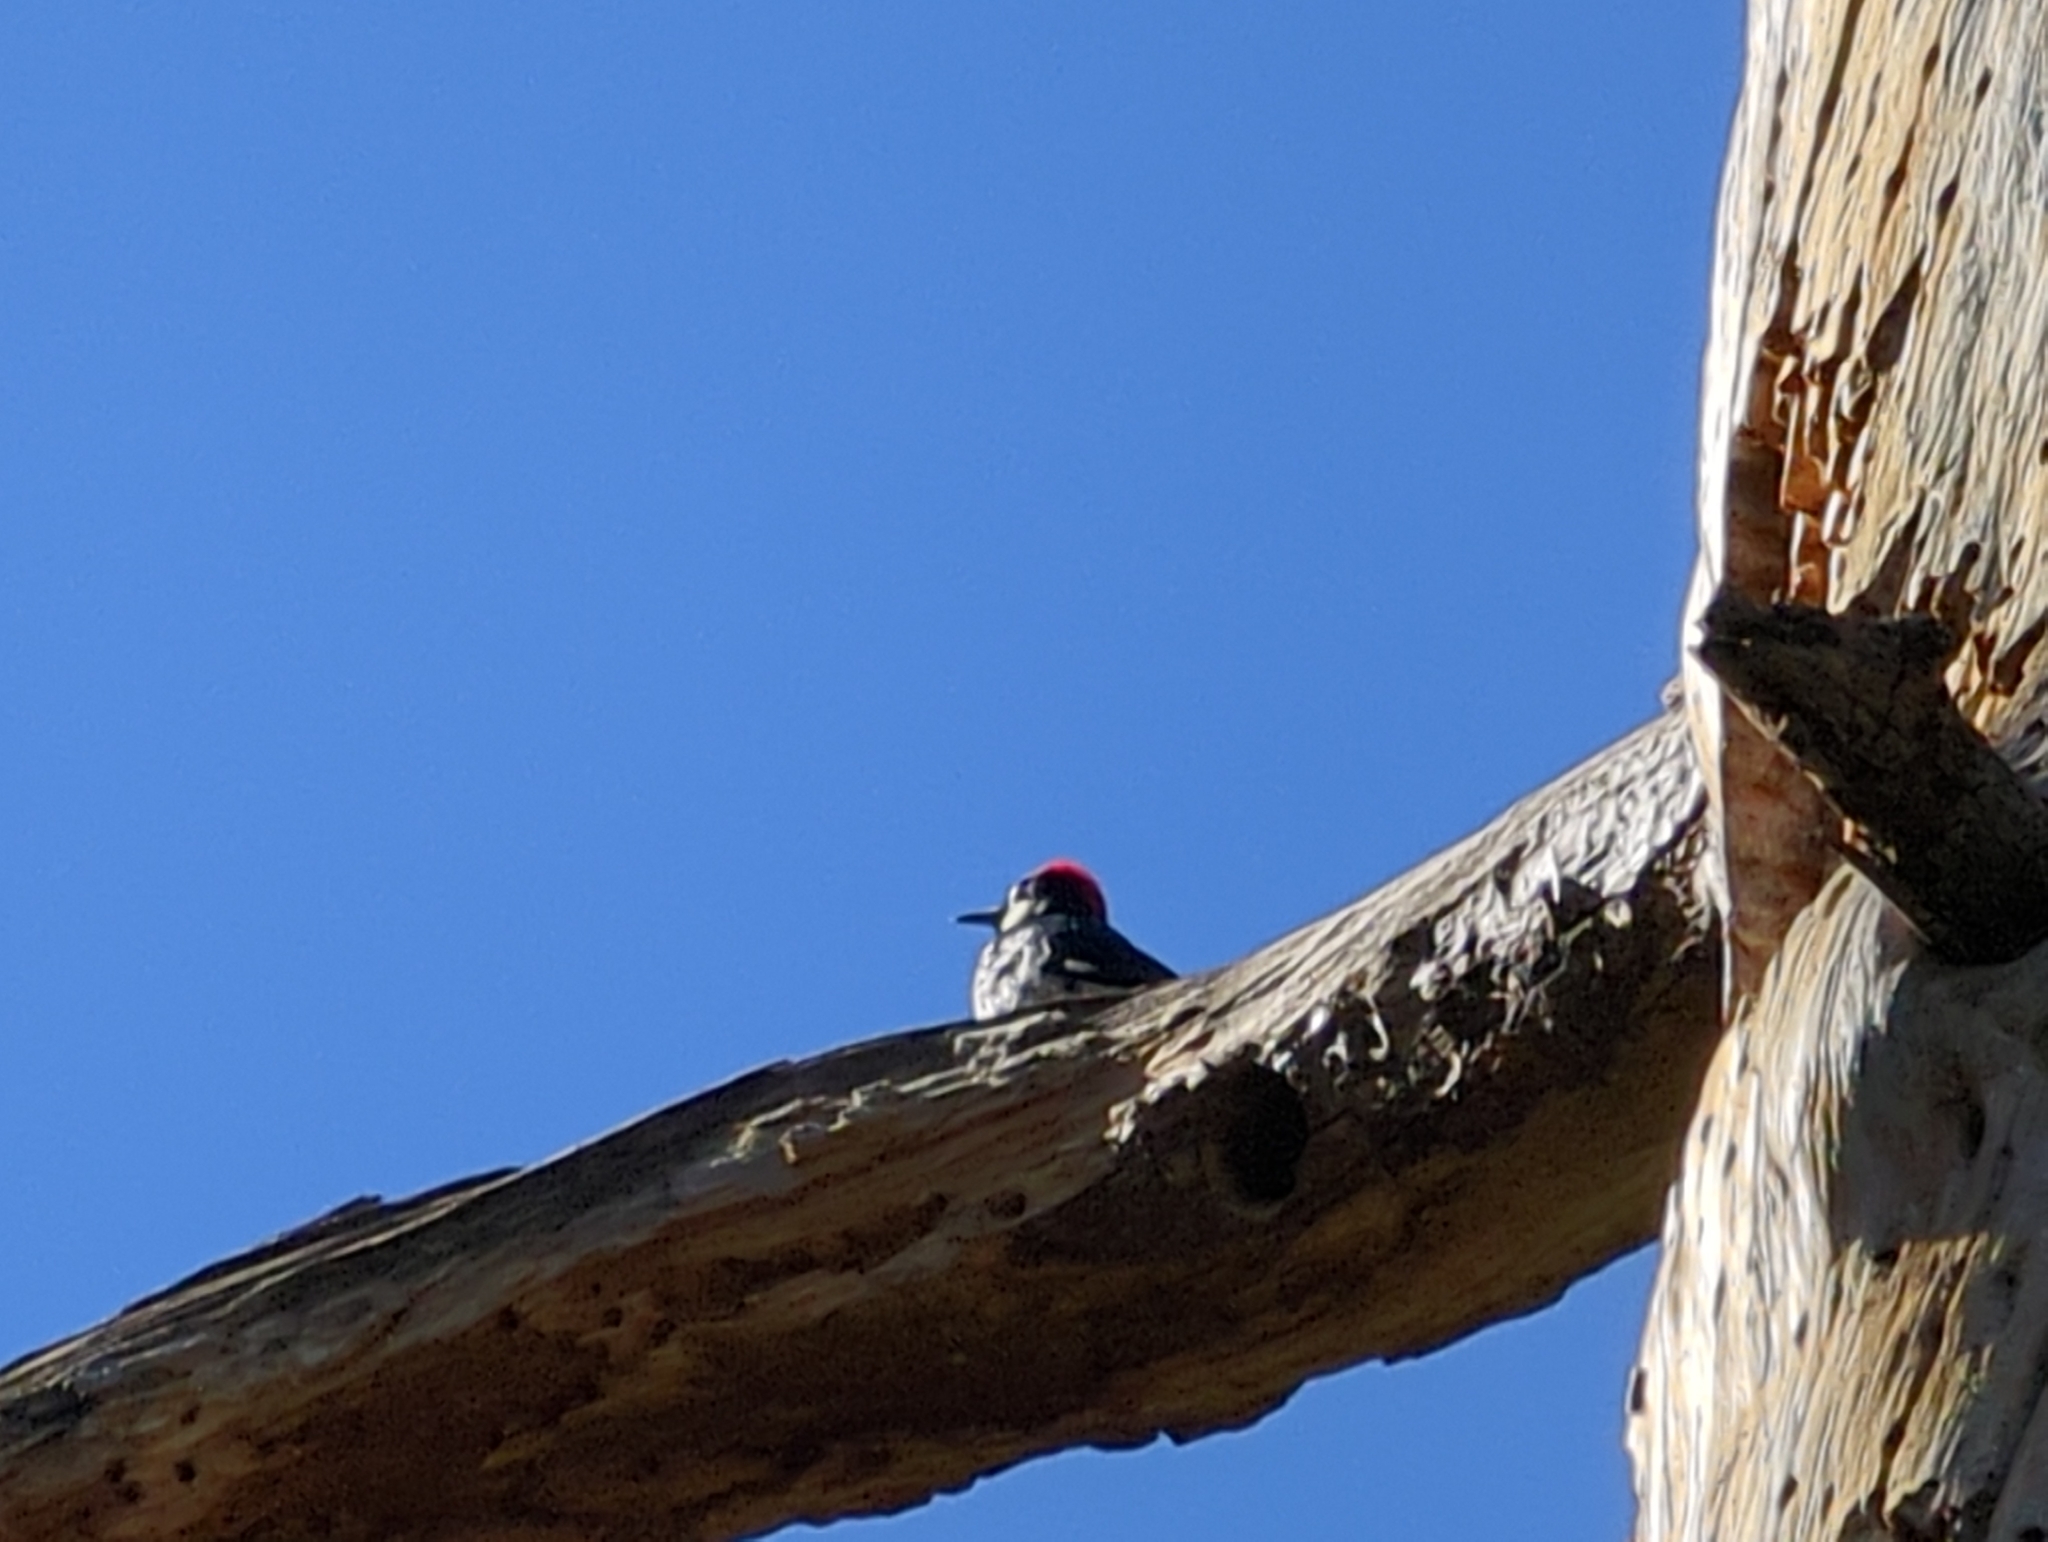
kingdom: Animalia
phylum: Chordata
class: Aves
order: Piciformes
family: Picidae
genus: Melanerpes
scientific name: Melanerpes formicivorus
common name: Acorn woodpecker
